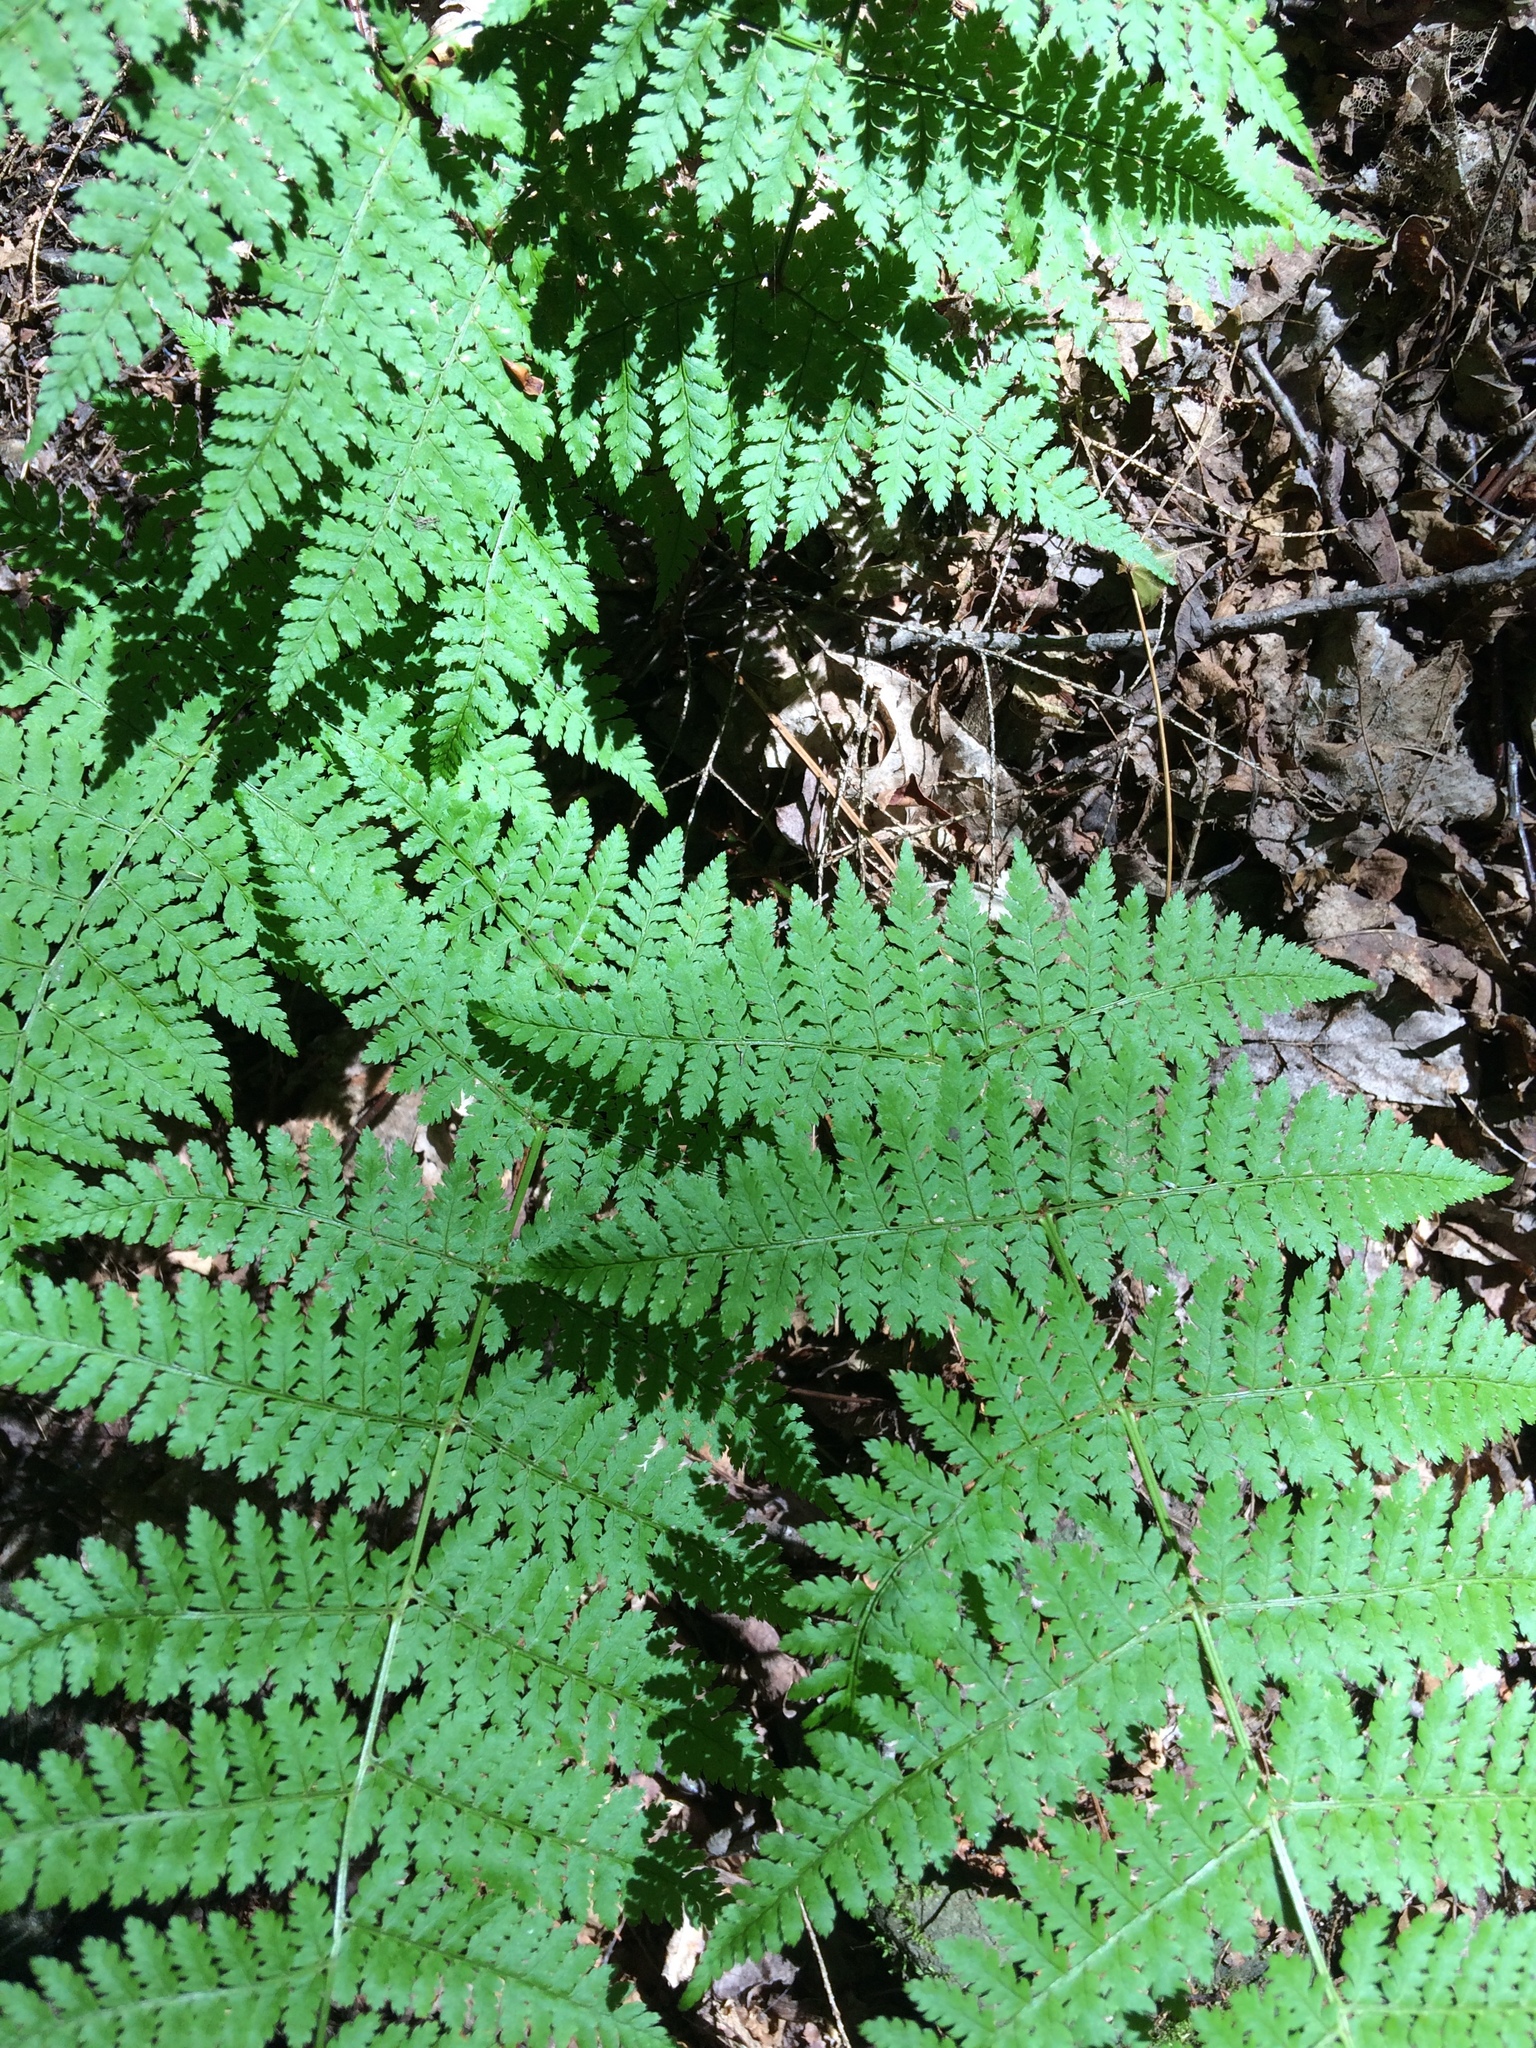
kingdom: Plantae
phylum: Tracheophyta
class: Polypodiopsida
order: Polypodiales
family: Dryopteridaceae
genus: Dryopteris
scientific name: Dryopteris intermedia
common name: Evergreen wood fern
